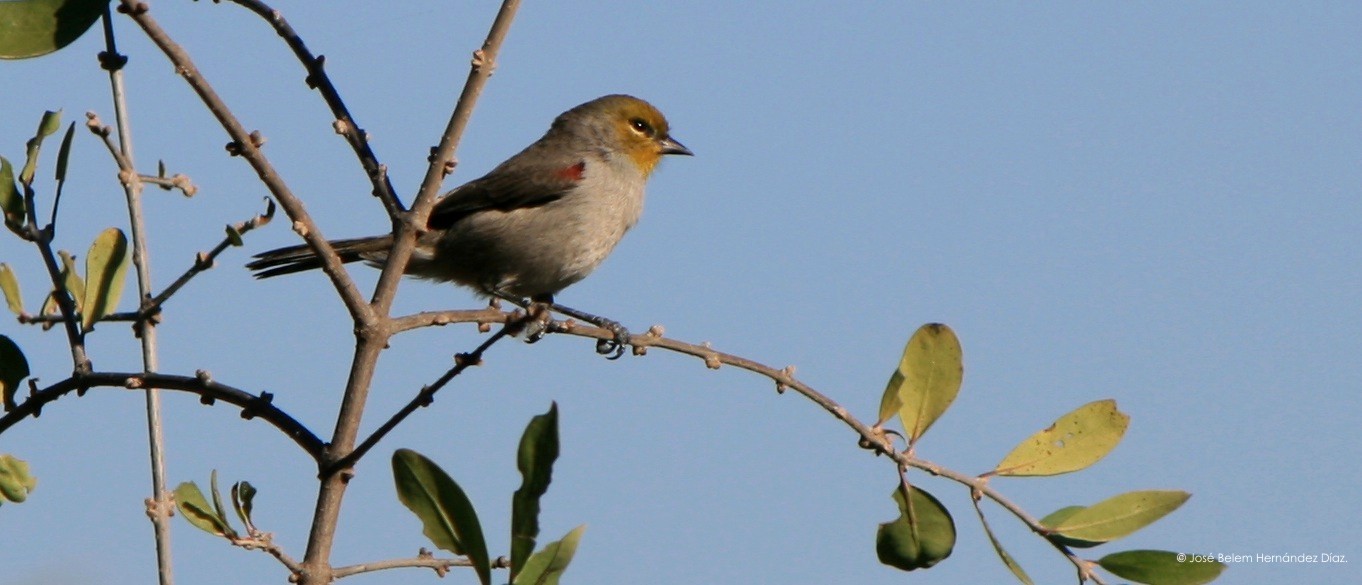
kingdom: Animalia
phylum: Chordata
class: Aves
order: Passeriformes
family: Remizidae
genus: Auriparus
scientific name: Auriparus flaviceps
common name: Verdin
